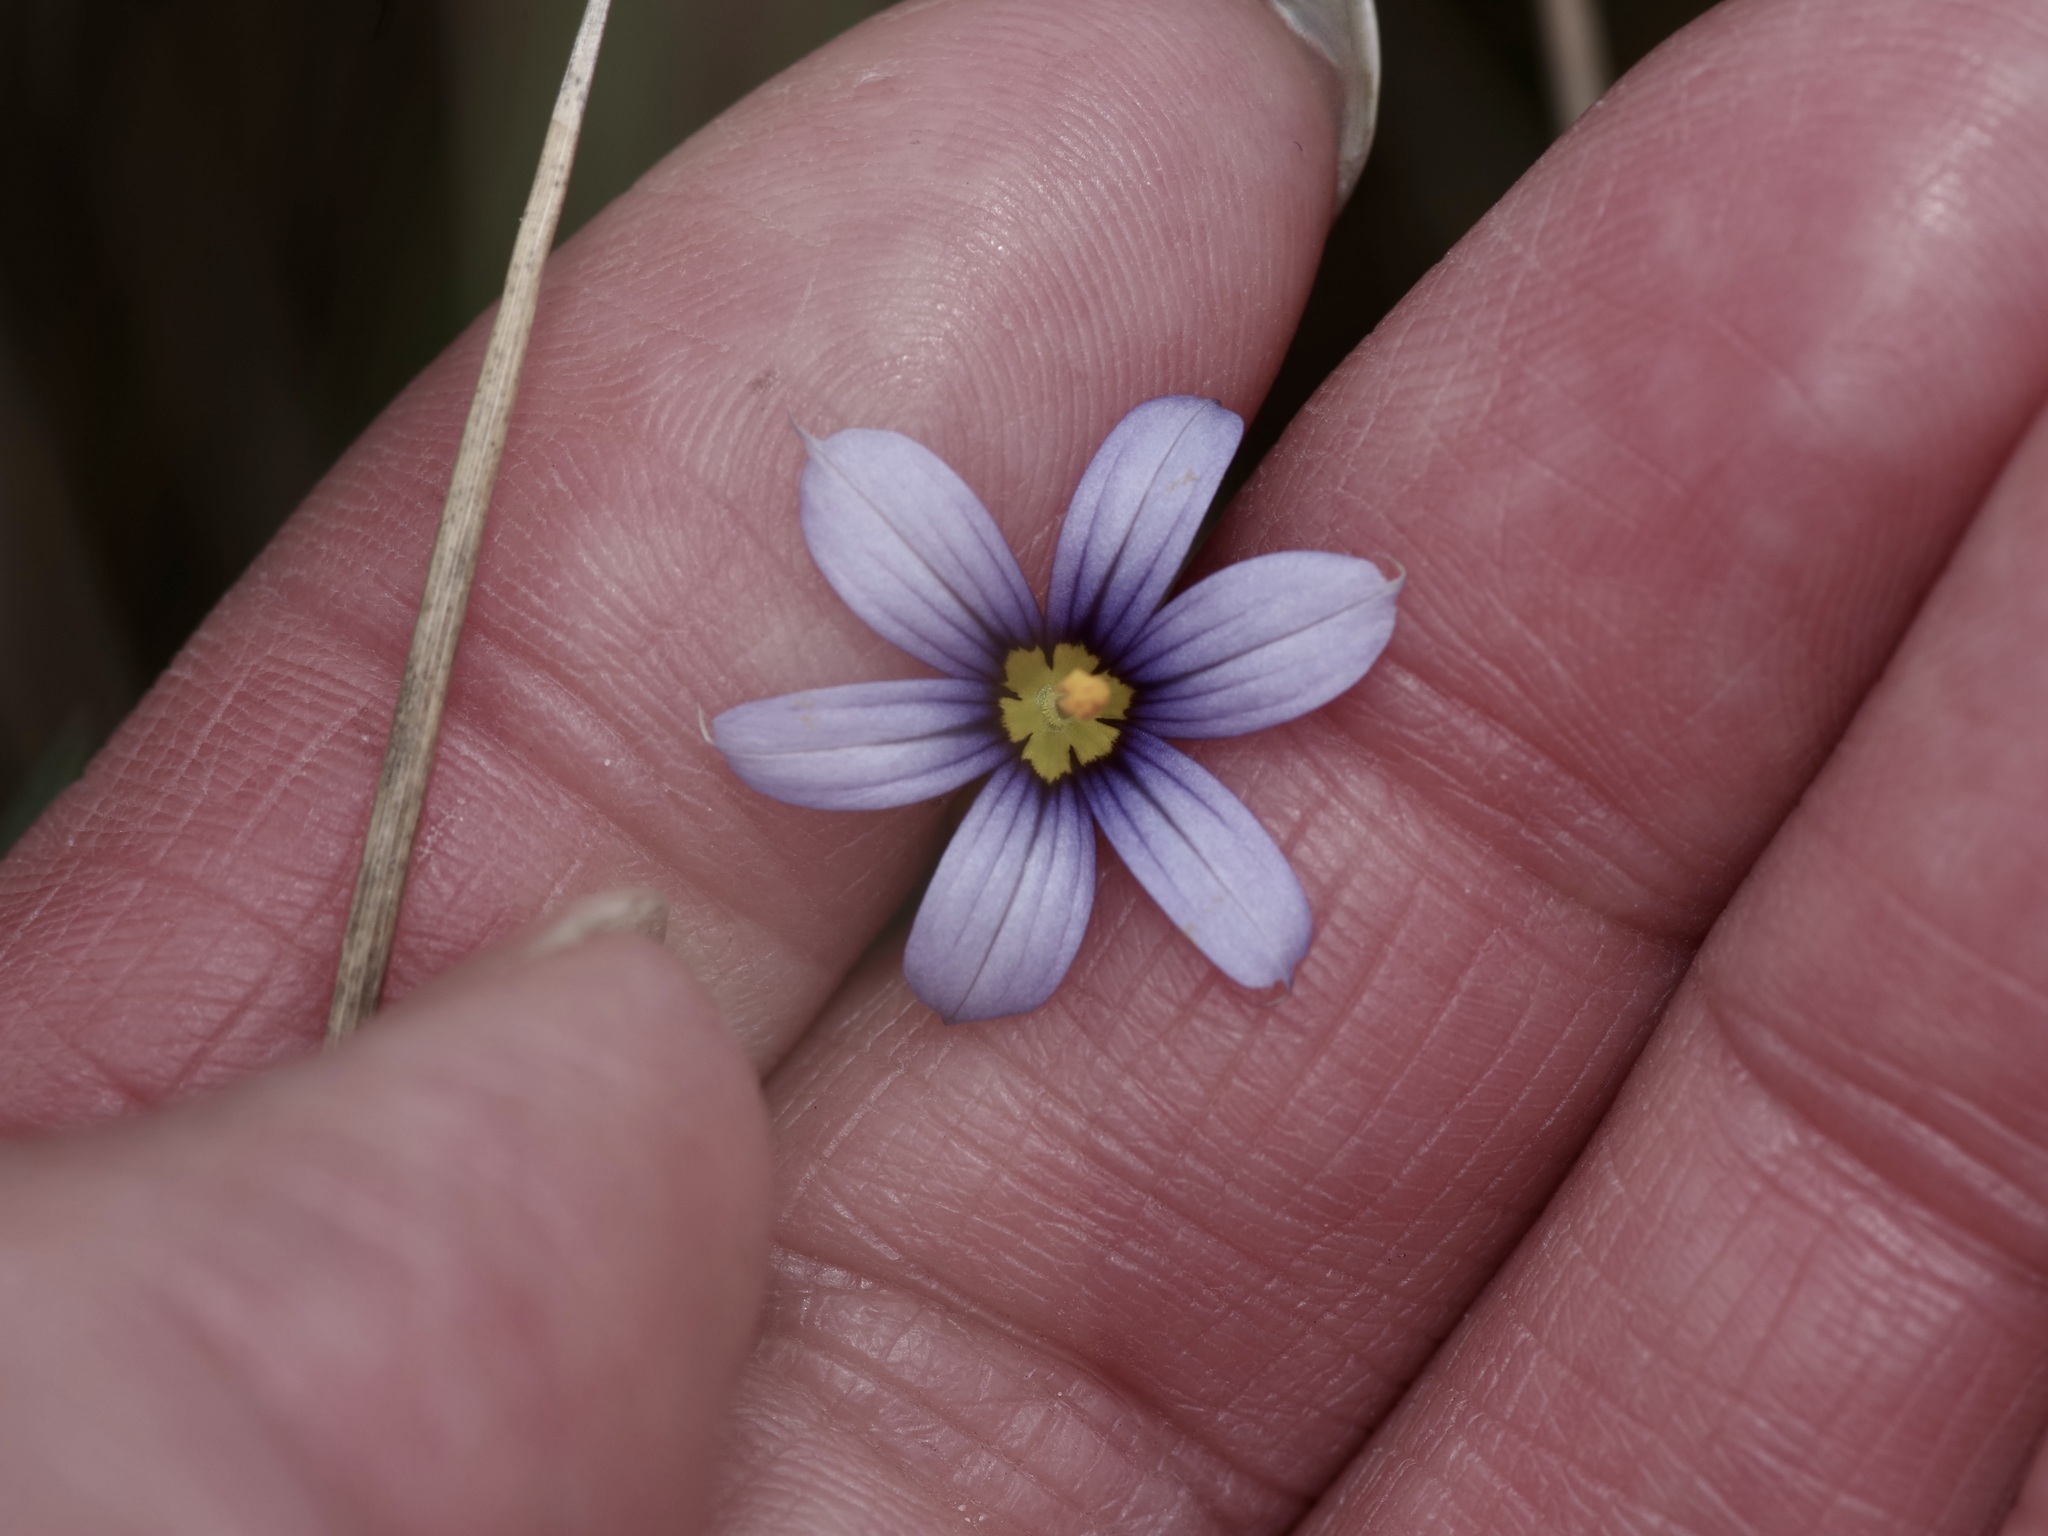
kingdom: Plantae
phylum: Tracheophyta
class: Liliopsida
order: Asparagales
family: Iridaceae
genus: Sisyrinchium
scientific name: Sisyrinchium biforme
